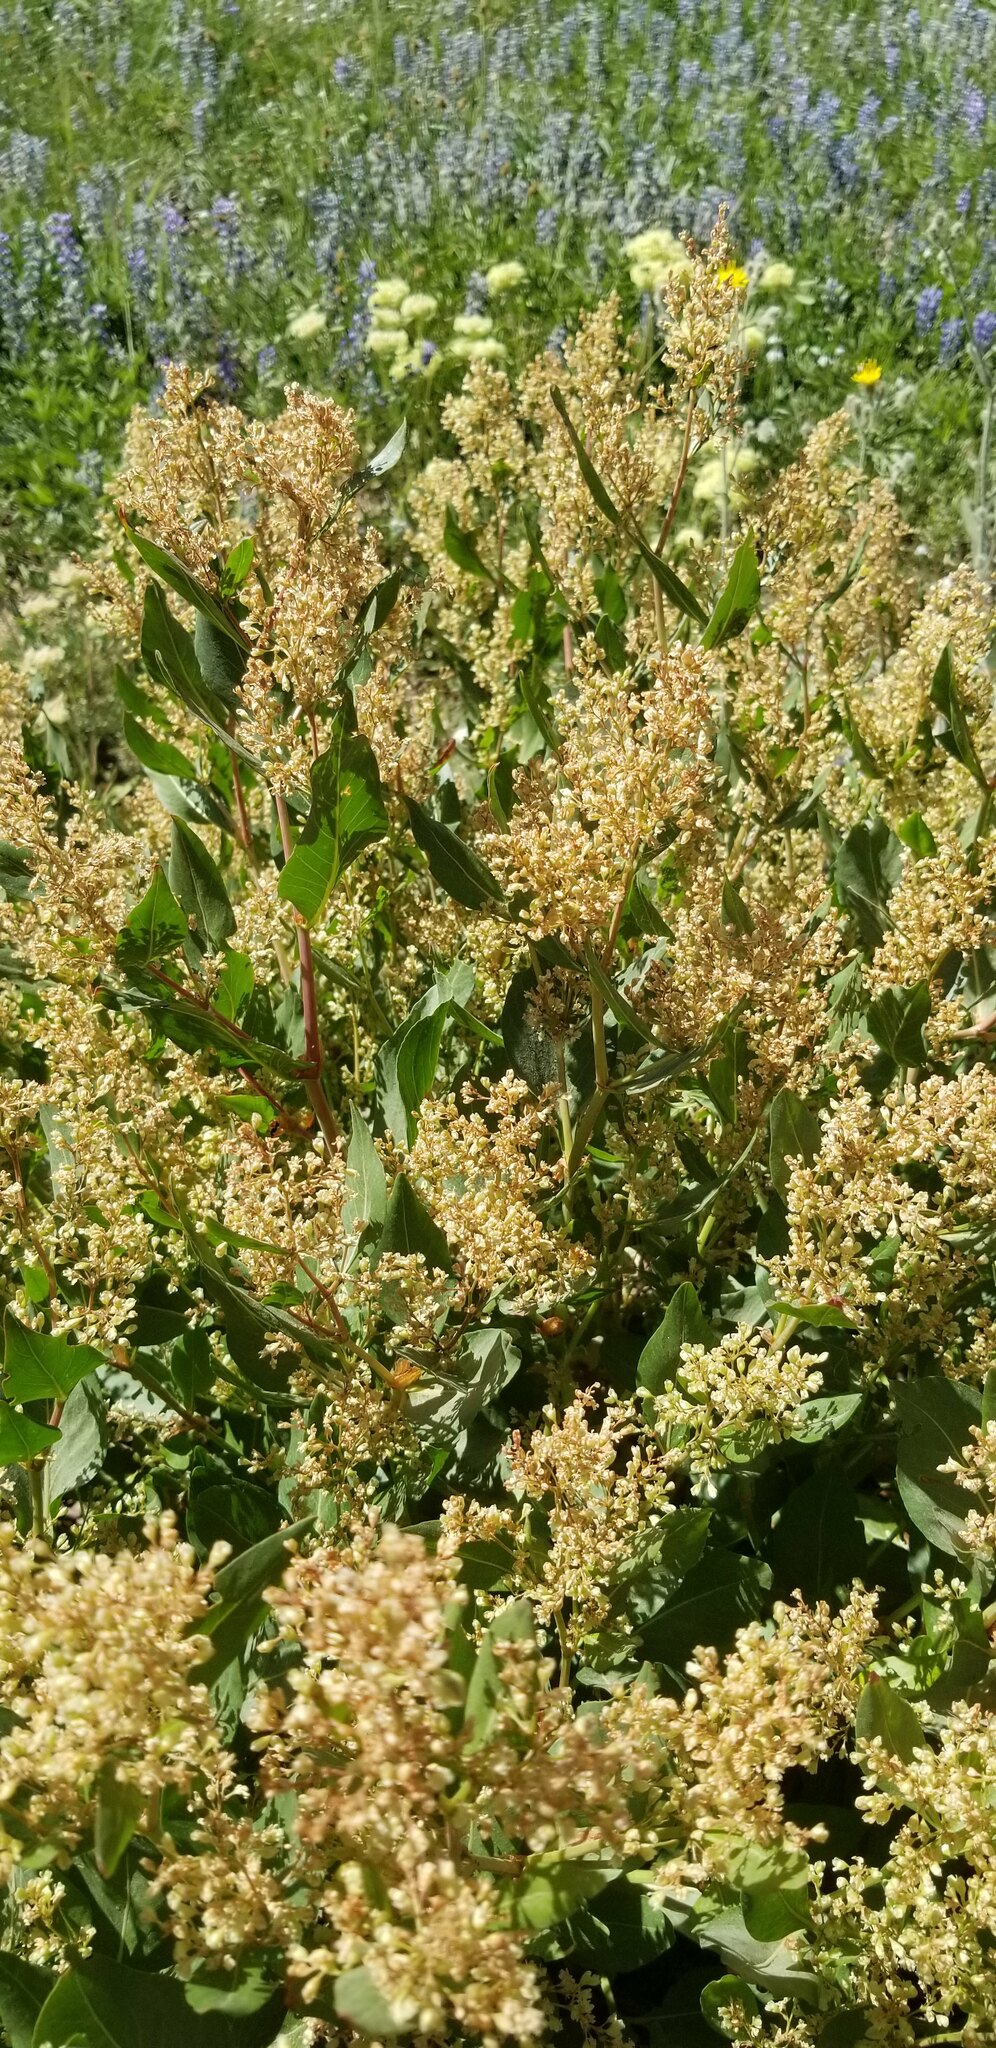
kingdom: Plantae
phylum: Tracheophyta
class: Magnoliopsida
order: Caryophyllales
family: Polygonaceae
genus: Koenigia
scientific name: Koenigia phytolaccifolia
